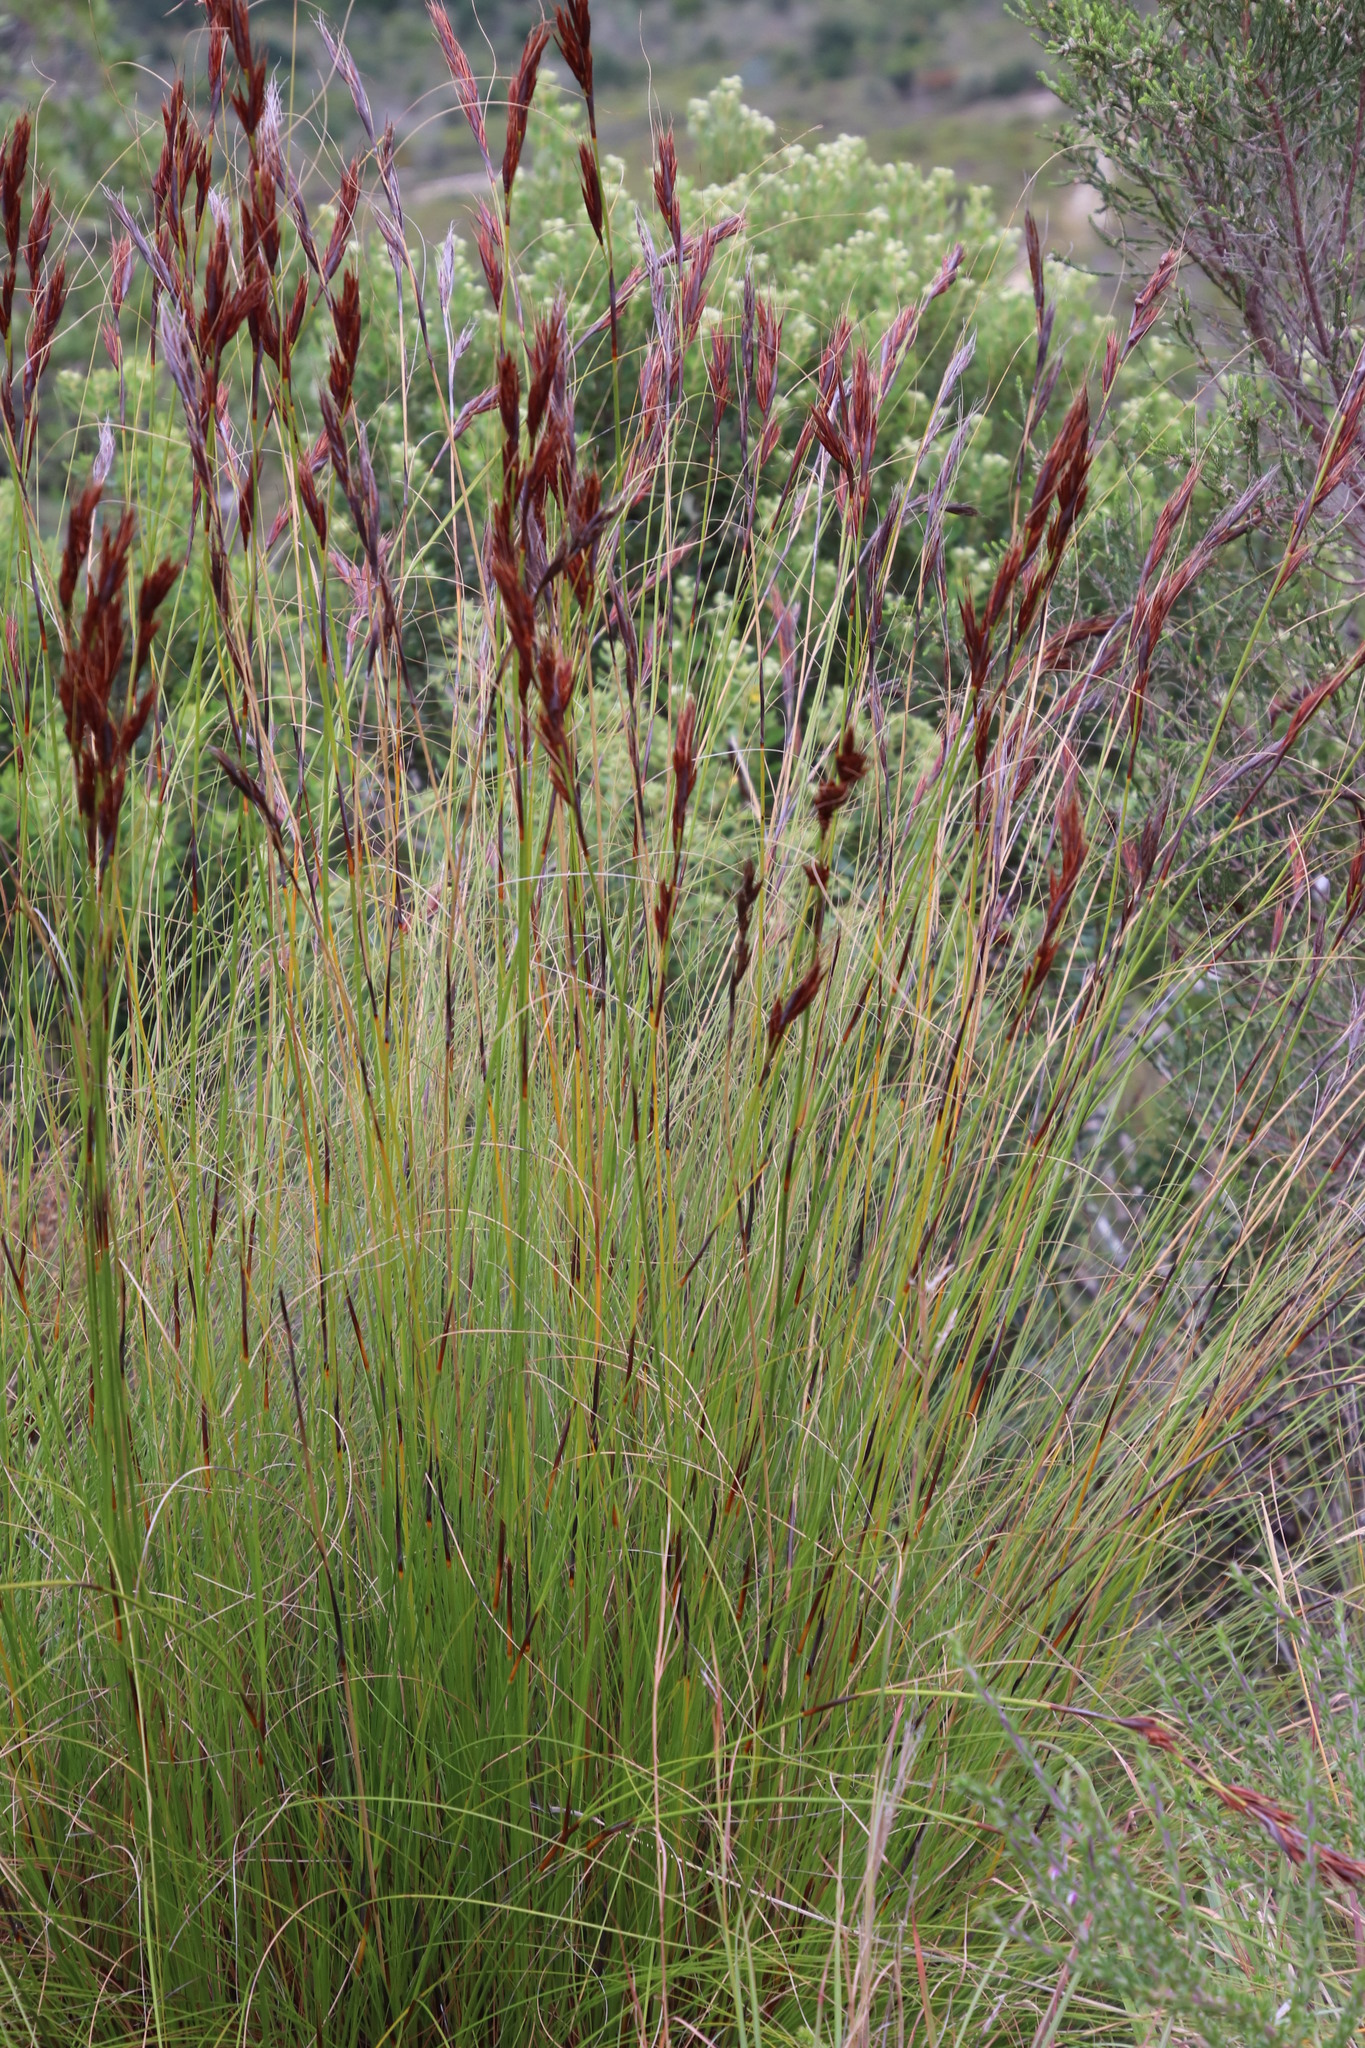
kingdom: Plantae
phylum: Tracheophyta
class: Liliopsida
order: Poales
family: Cyperaceae
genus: Tetraria
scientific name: Tetraria ustulata
